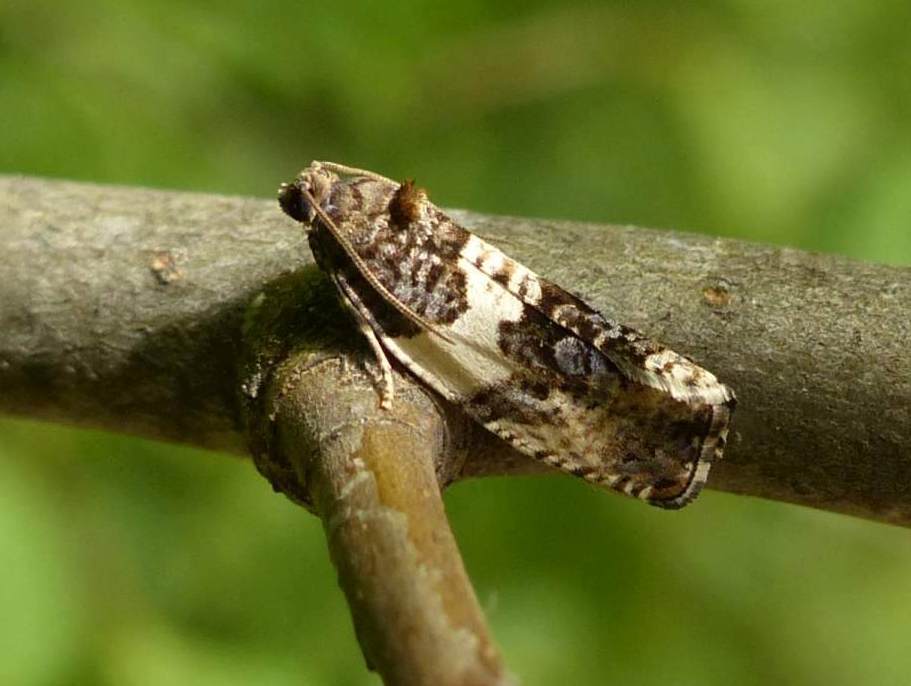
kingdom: Animalia
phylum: Arthropoda
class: Insecta
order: Lepidoptera
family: Tortricidae
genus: Pseudosciaphila
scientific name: Pseudosciaphila duplex
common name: Poplar leafroller moth
